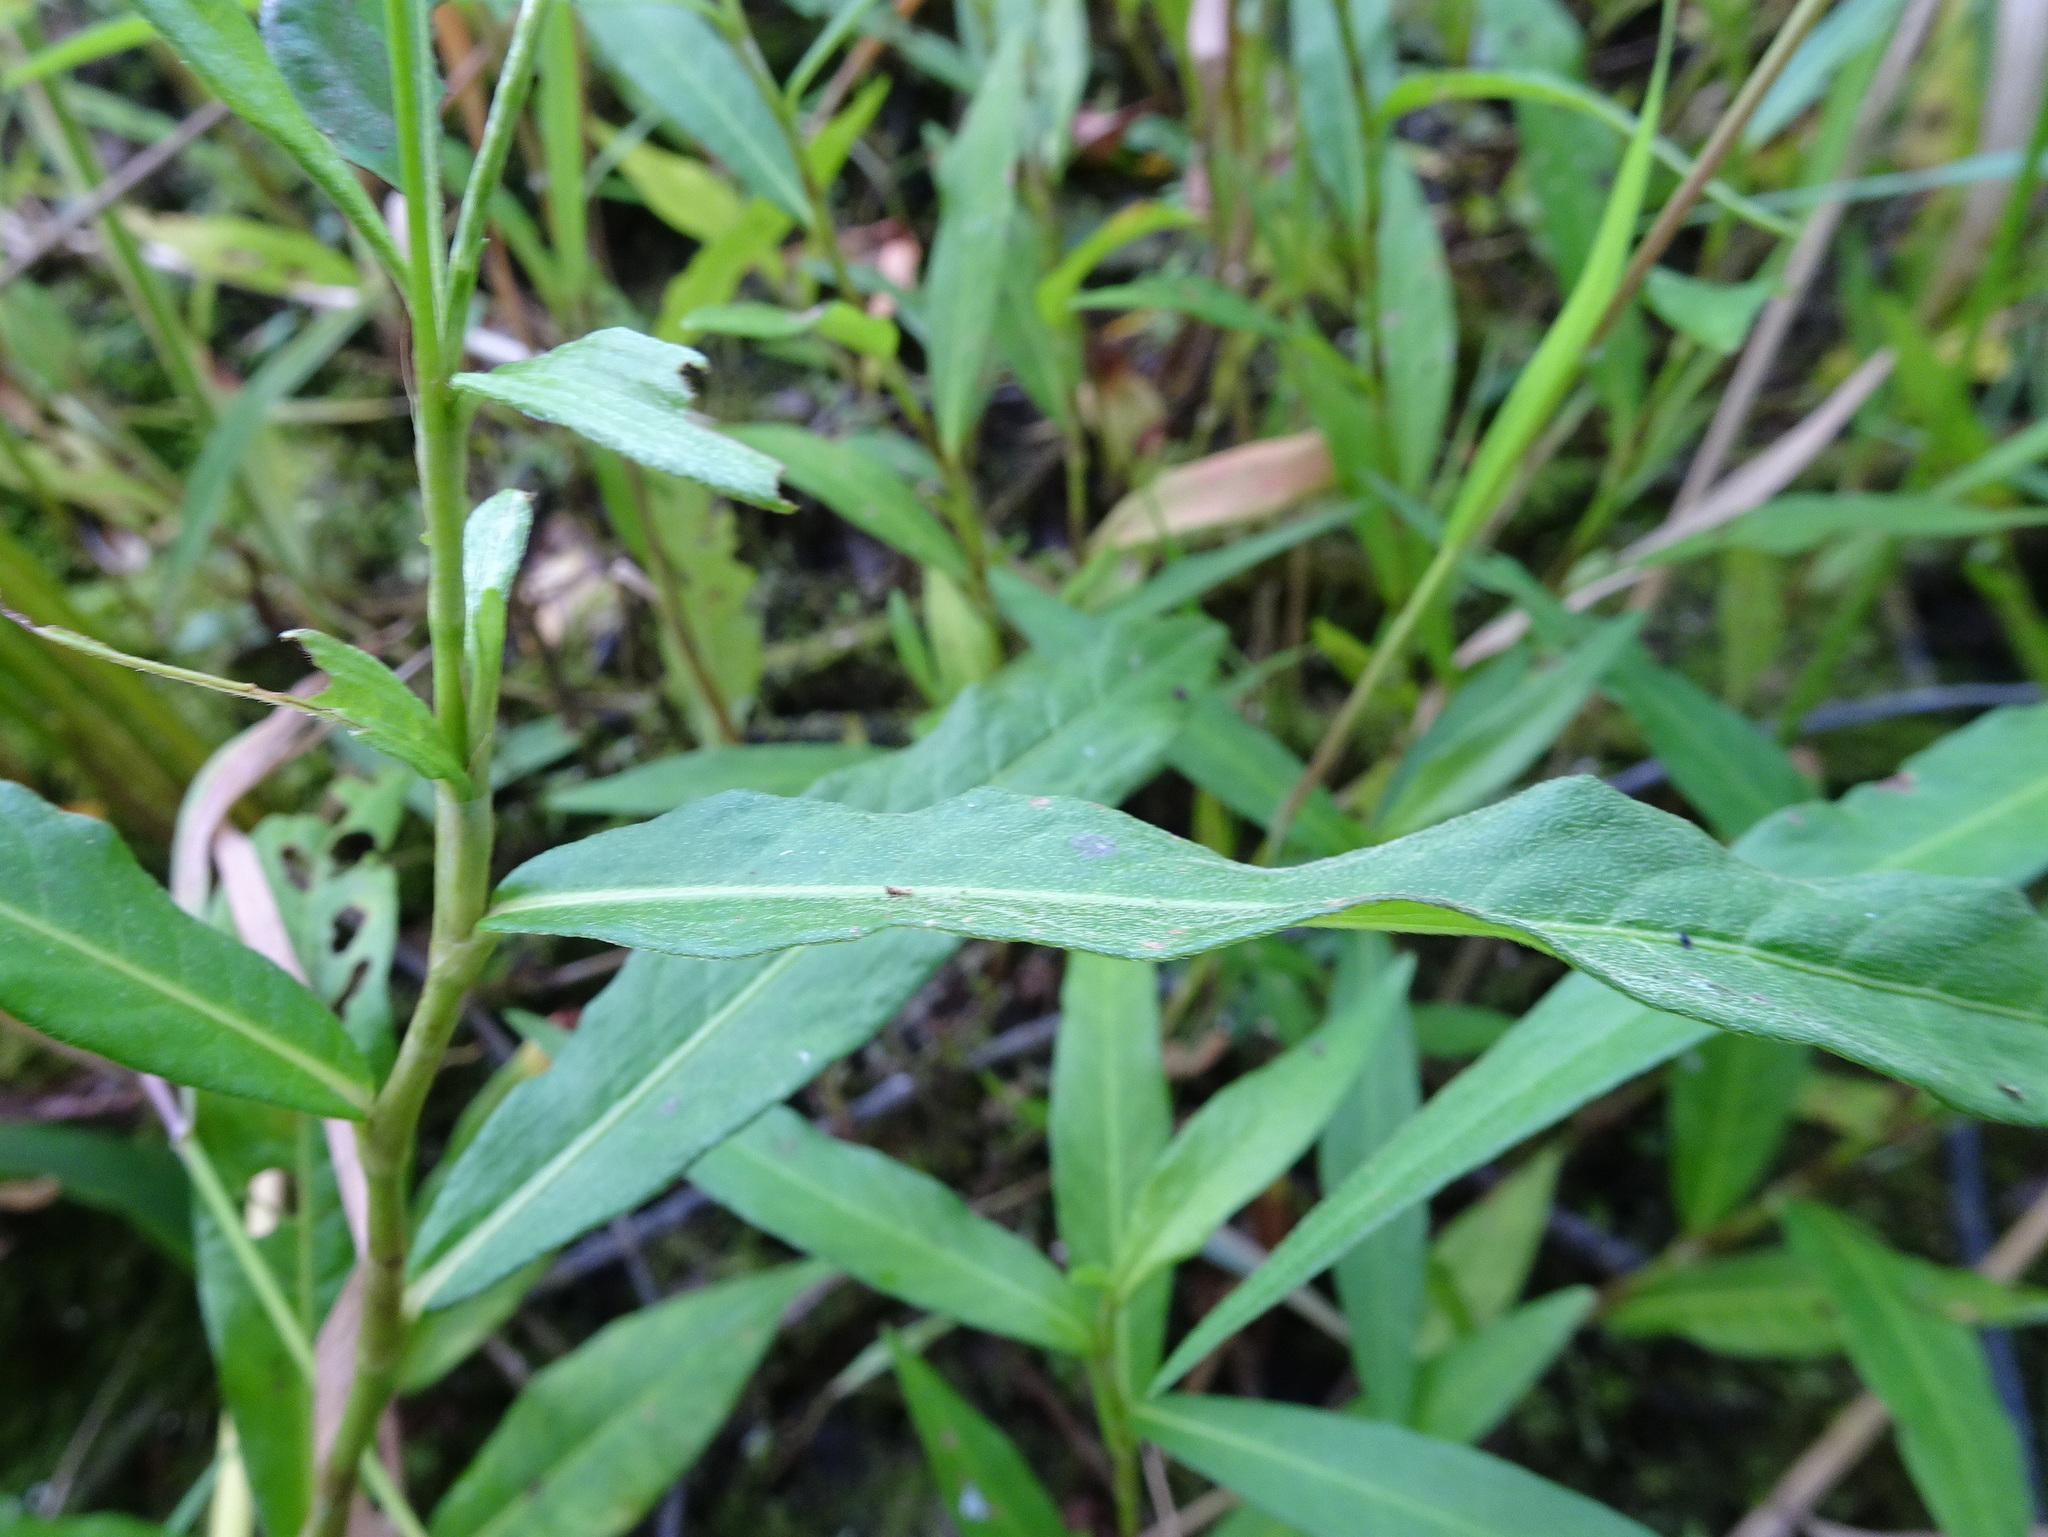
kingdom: Plantae
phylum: Tracheophyta
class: Magnoliopsida
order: Caryophyllales
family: Polygonaceae
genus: Persicaria
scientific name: Persicaria hydropiperoides
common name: Swamp smartweed
